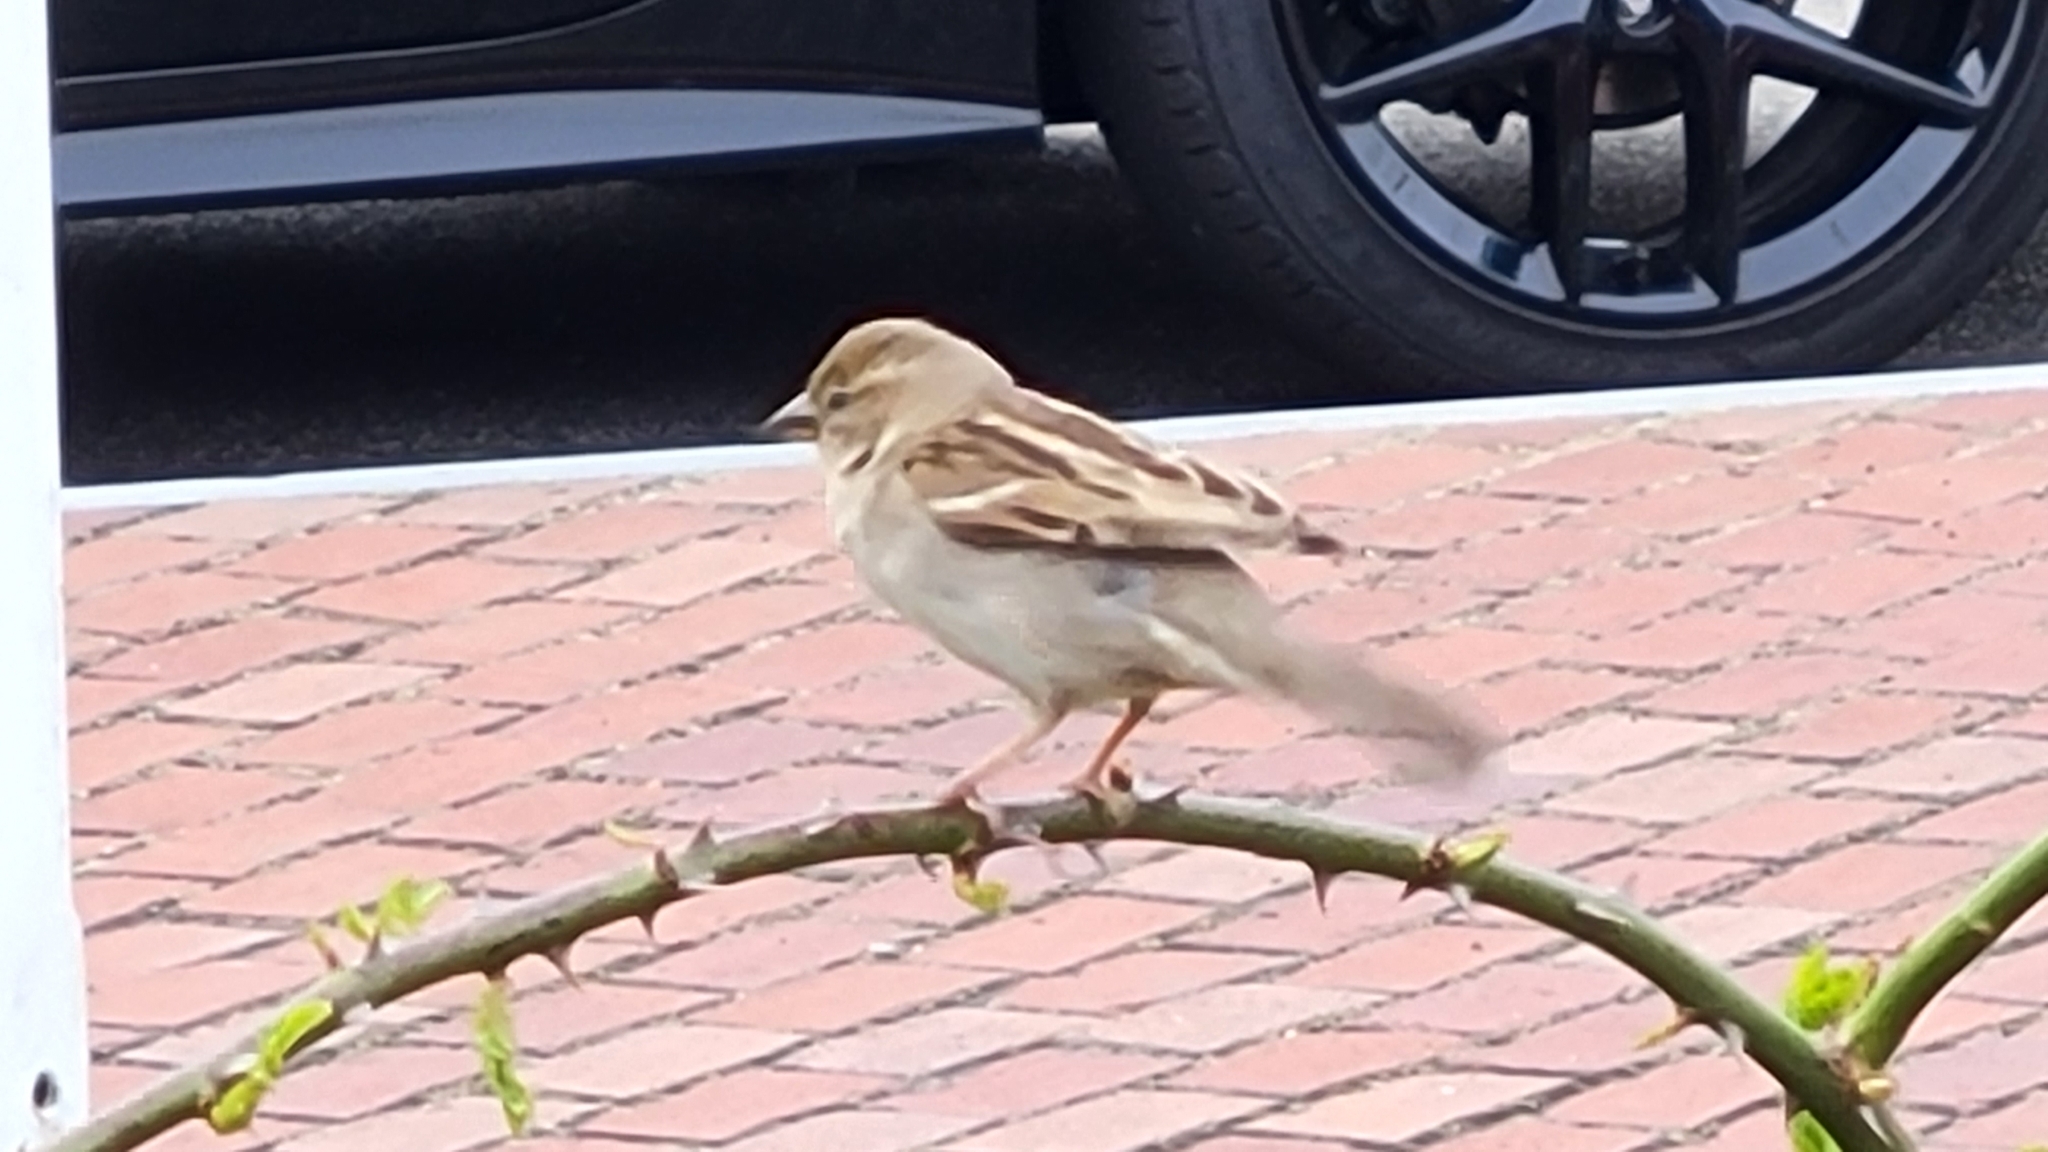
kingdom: Animalia
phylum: Chordata
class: Aves
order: Passeriformes
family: Passeridae
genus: Passer
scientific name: Passer domesticus
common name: House sparrow
